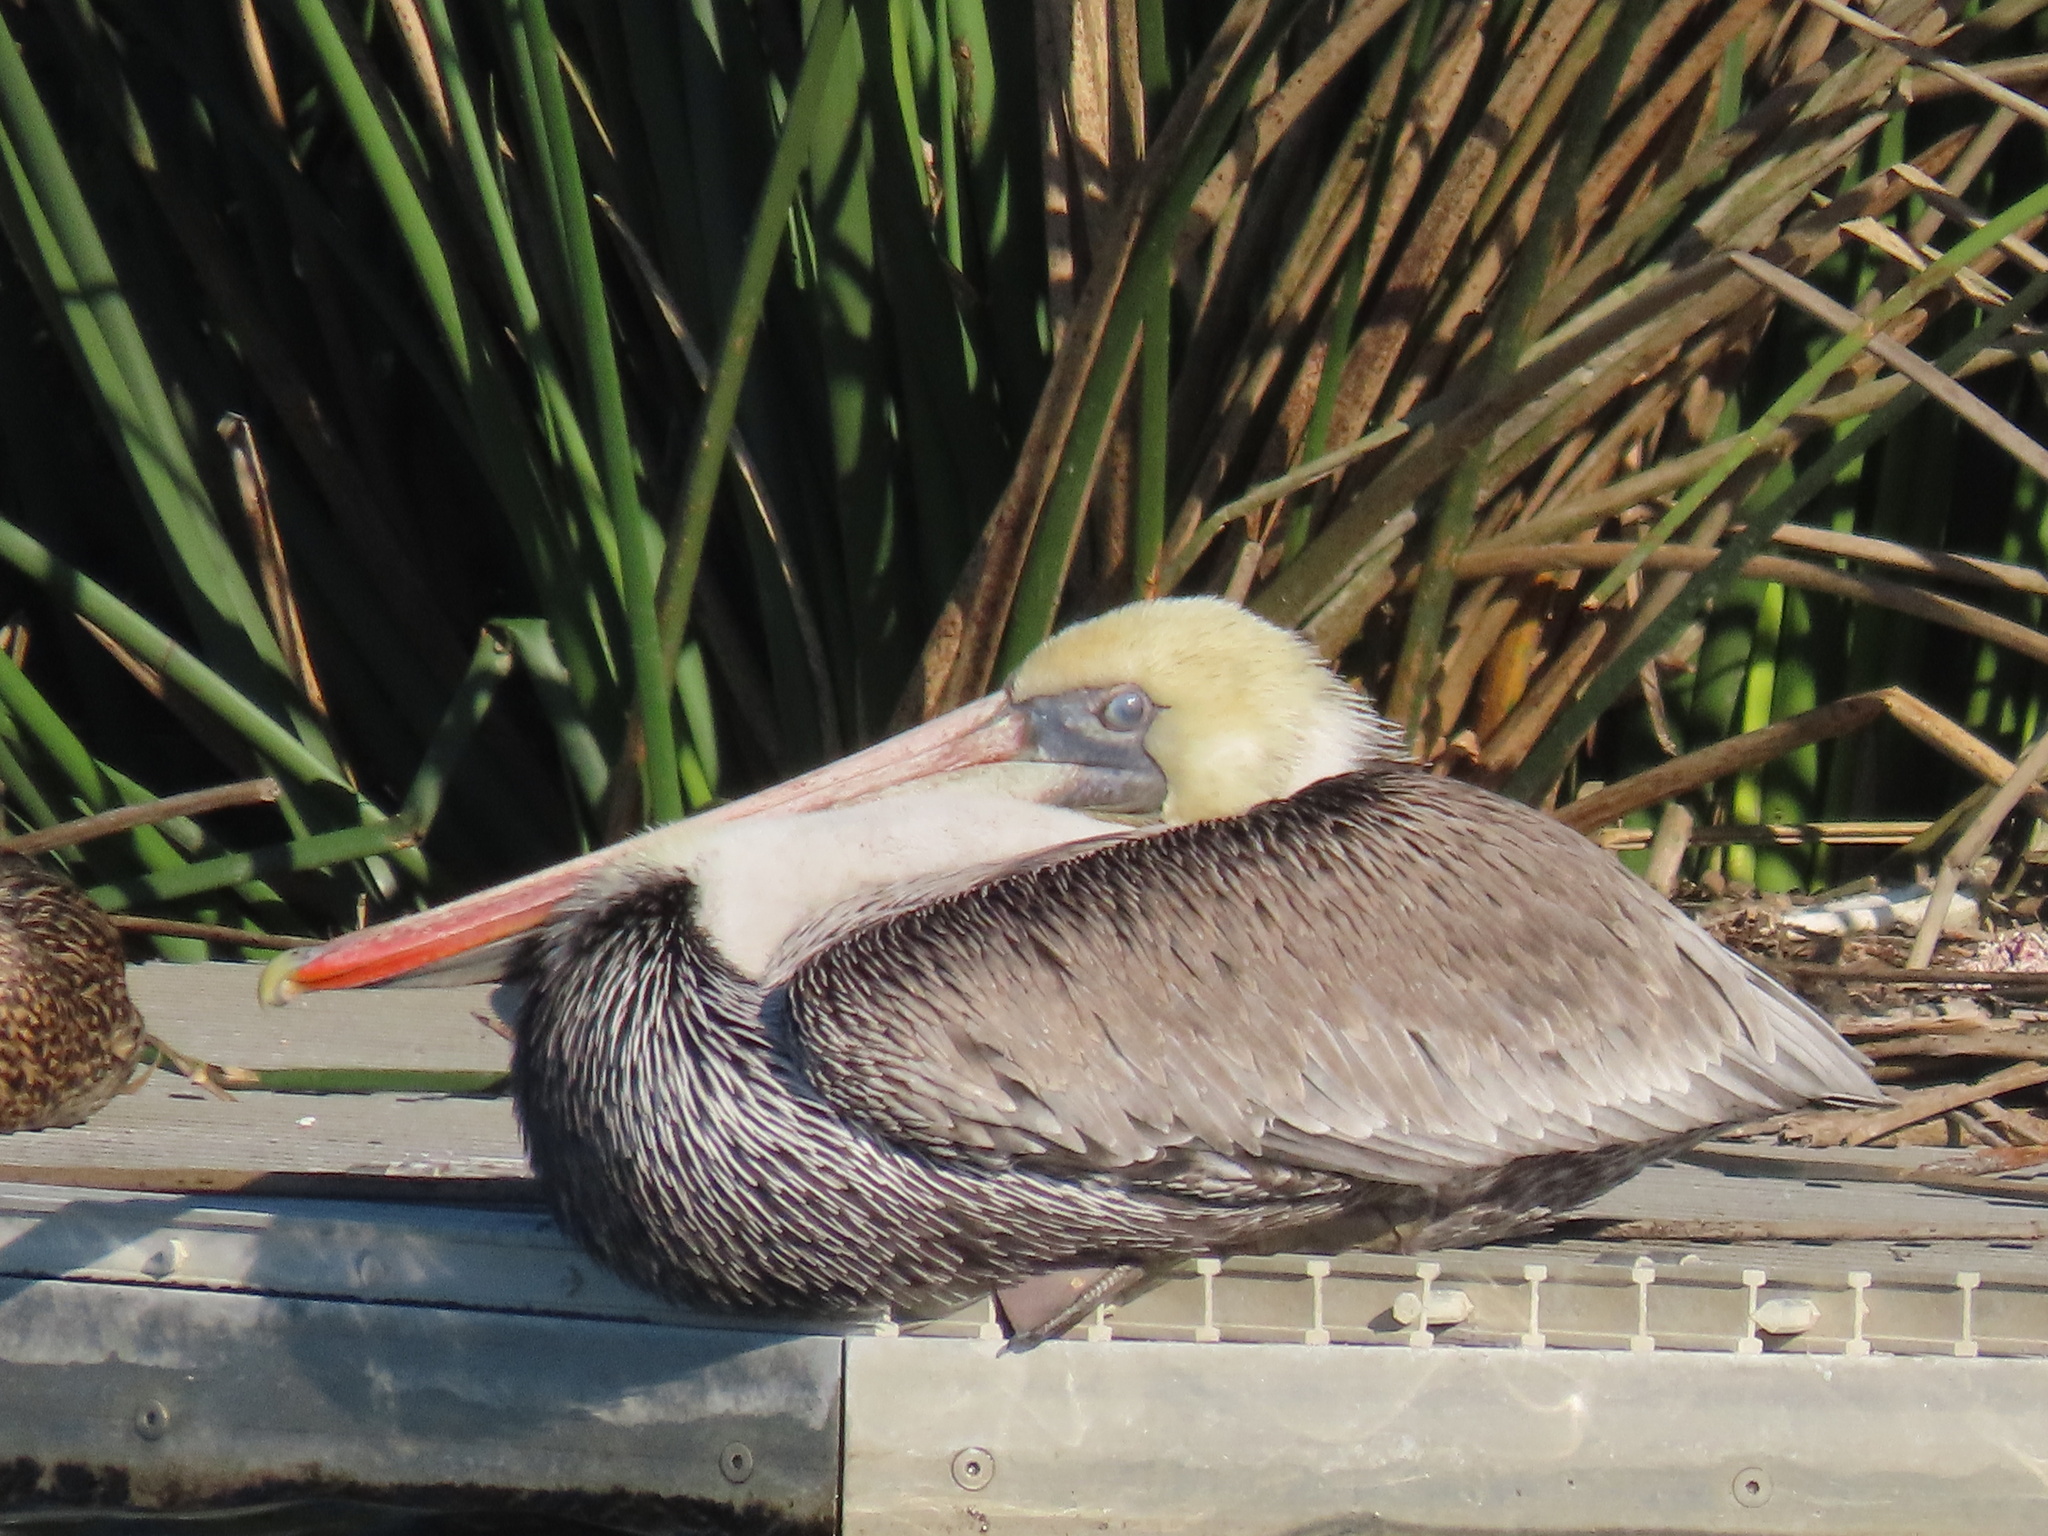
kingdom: Animalia
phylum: Chordata
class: Aves
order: Pelecaniformes
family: Pelecanidae
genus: Pelecanus
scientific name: Pelecanus occidentalis
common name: Brown pelican
